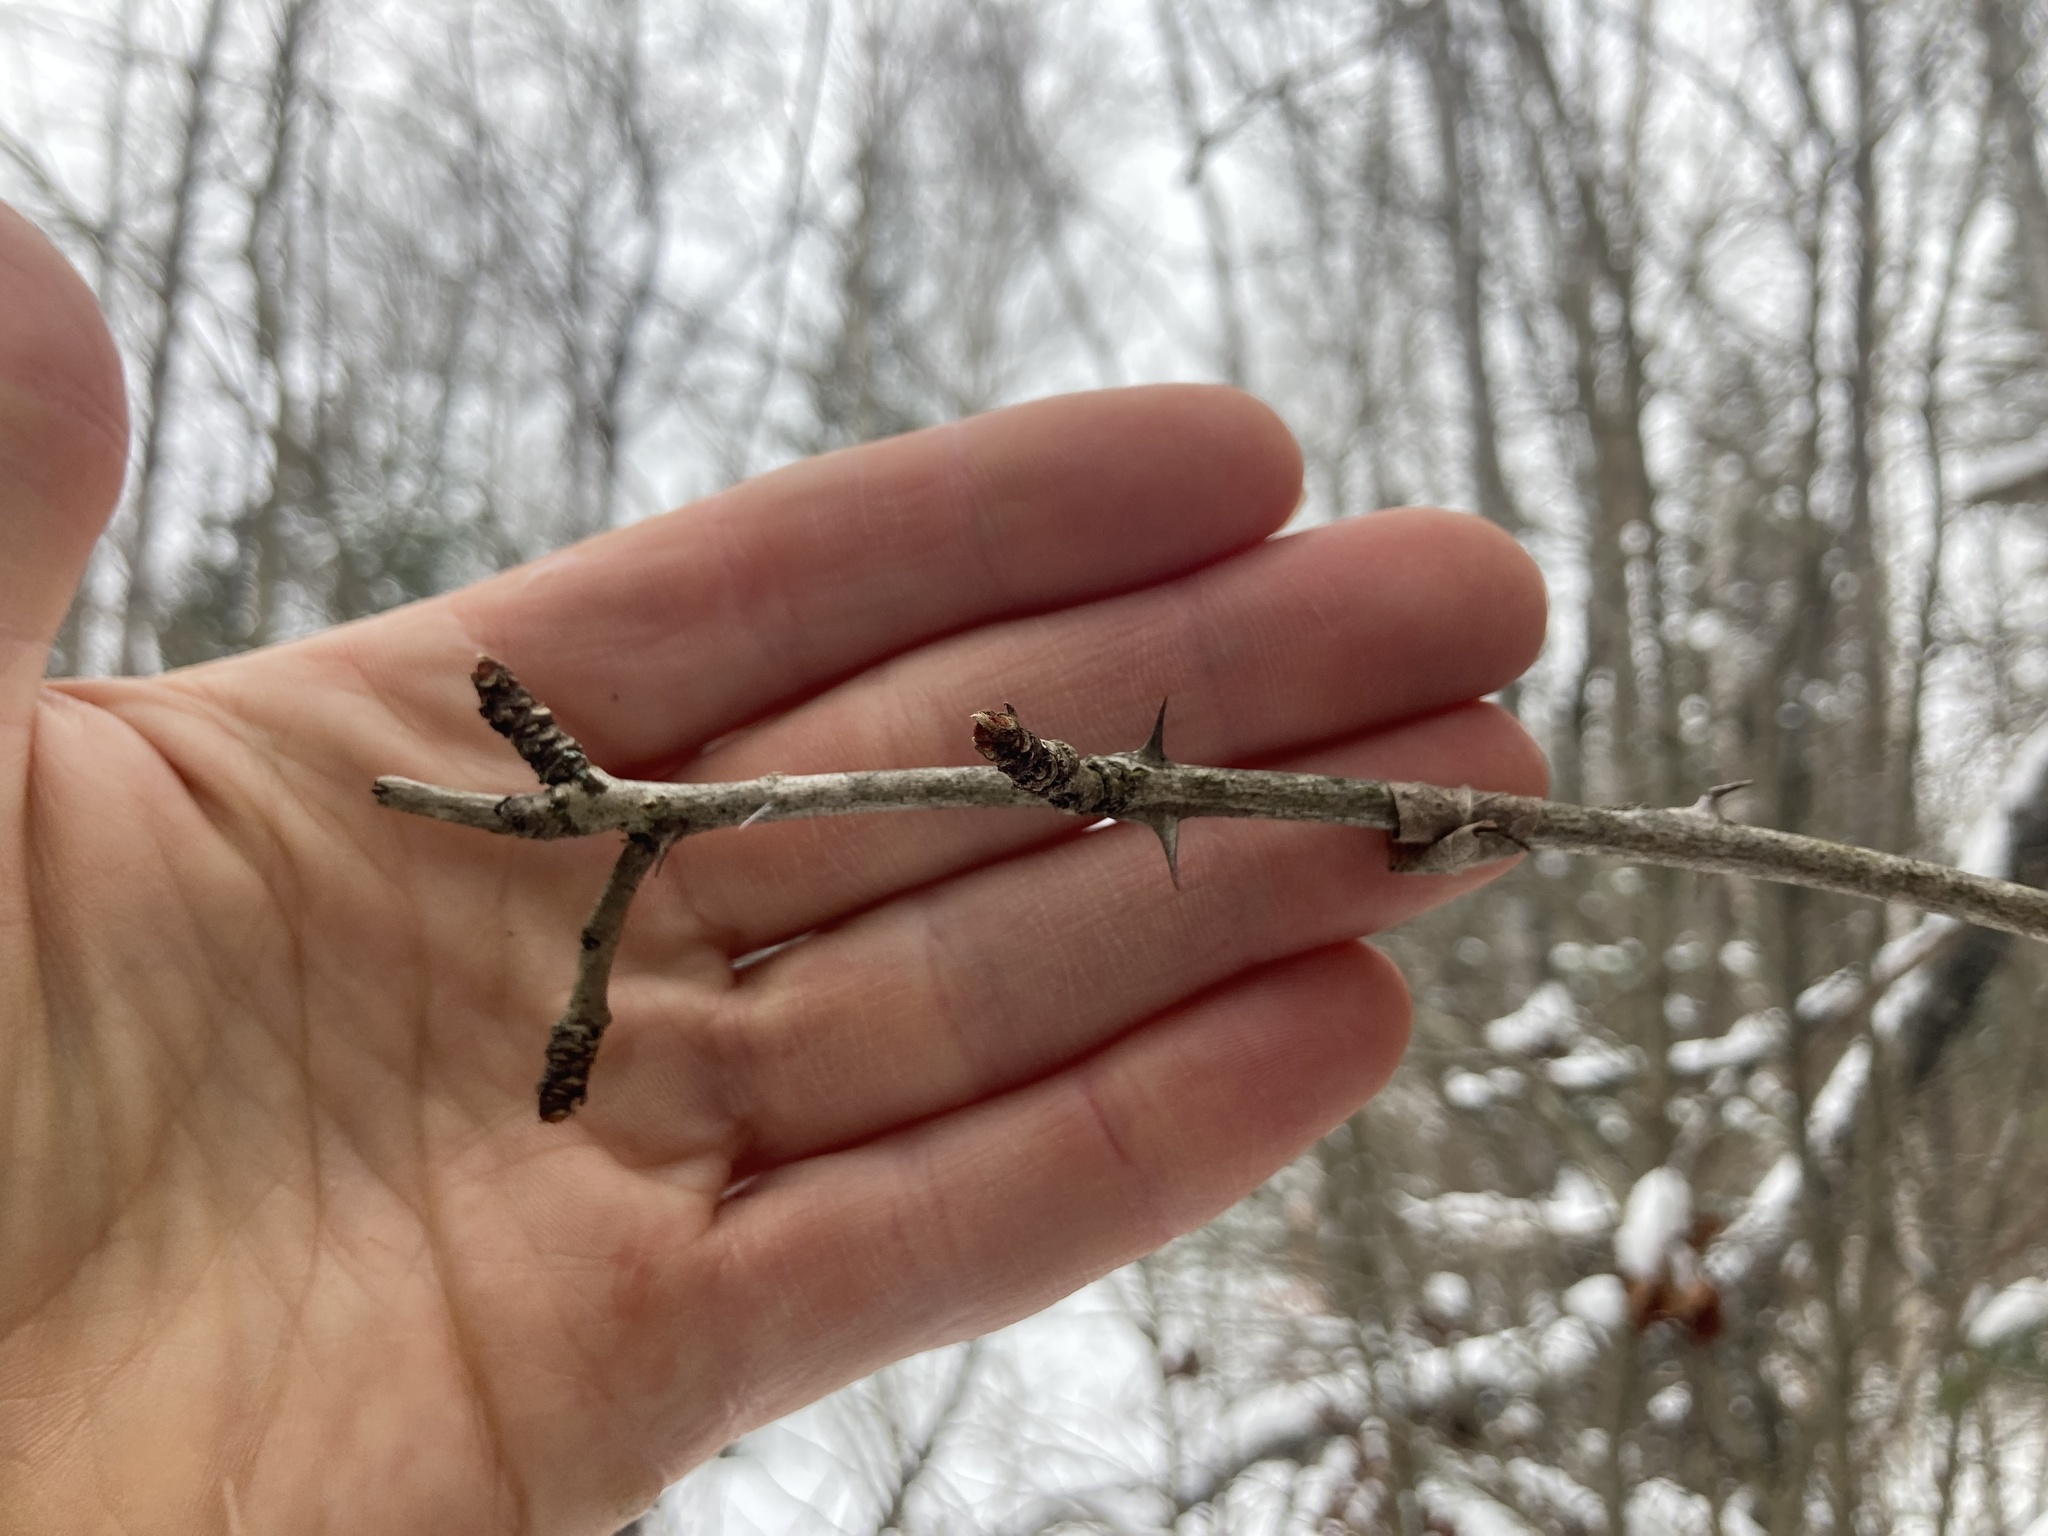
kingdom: Plantae
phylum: Tracheophyta
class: Magnoliopsida
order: Sapindales
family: Rutaceae
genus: Zanthoxylum
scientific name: Zanthoxylum americanum
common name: Northern prickly-ash
